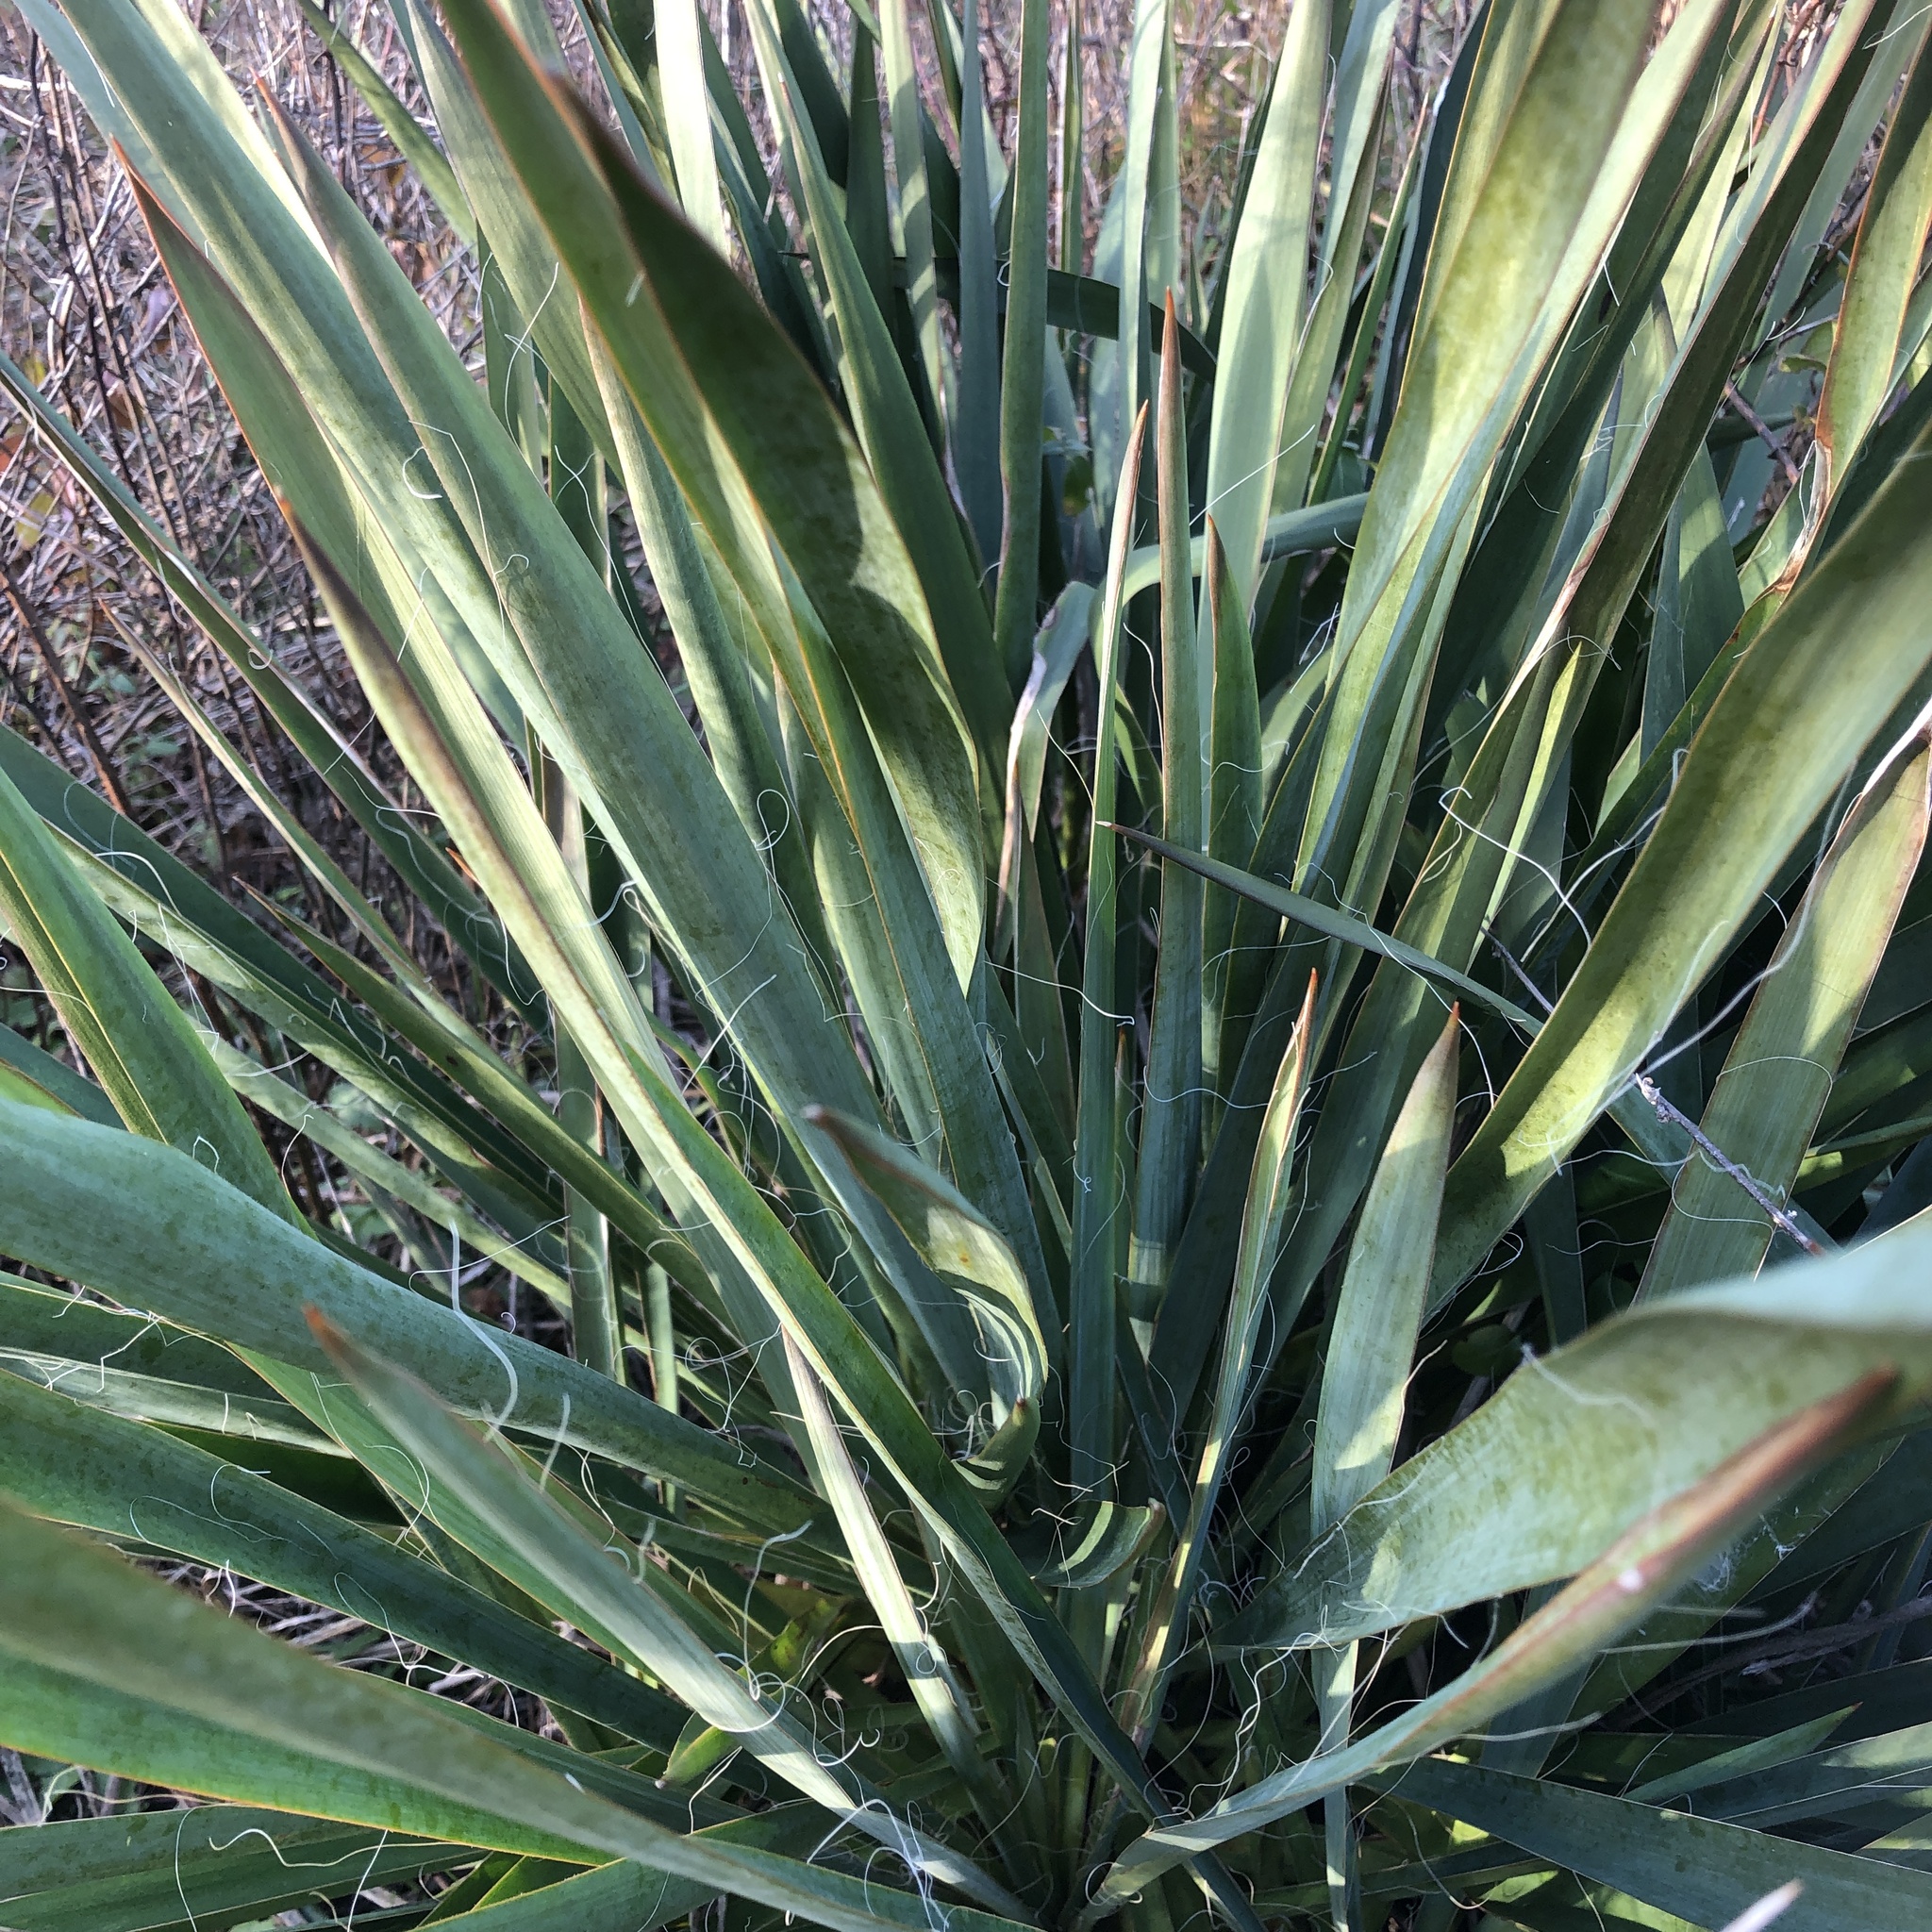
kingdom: Plantae
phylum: Tracheophyta
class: Liliopsida
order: Asparagales
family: Asparagaceae
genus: Yucca
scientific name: Yucca filamentosa
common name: Adam's-needle
